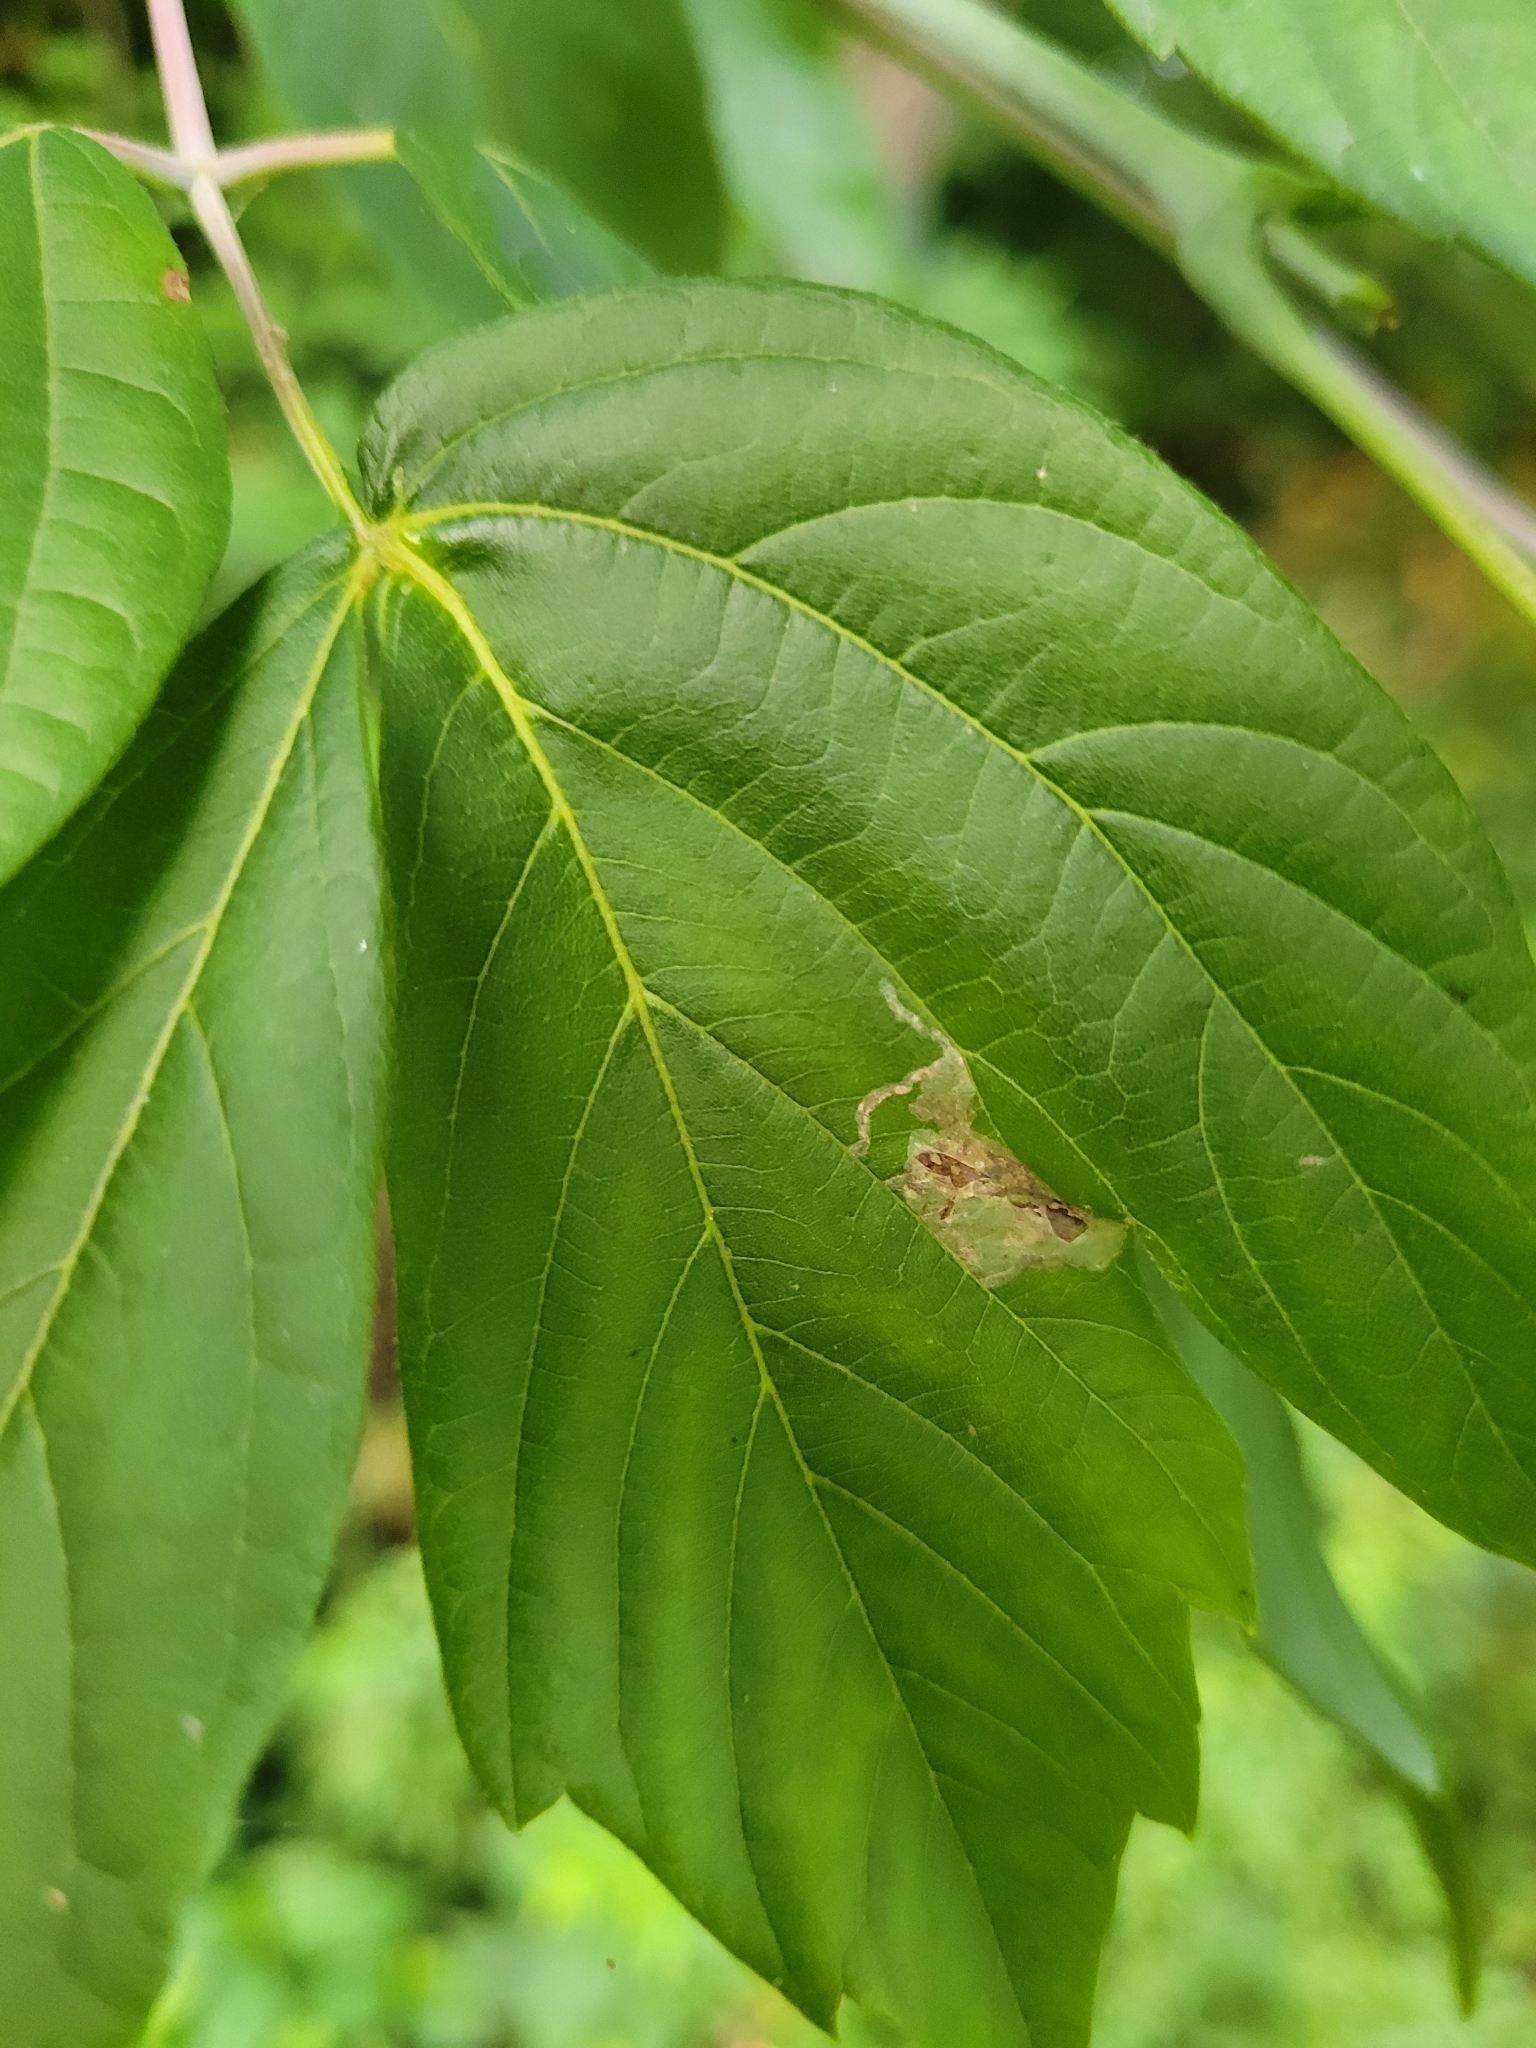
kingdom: Animalia
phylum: Arthropoda
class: Insecta
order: Lepidoptera
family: Gracillariidae
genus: Caloptilia
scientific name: Caloptilia negundella
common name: Leafminer
